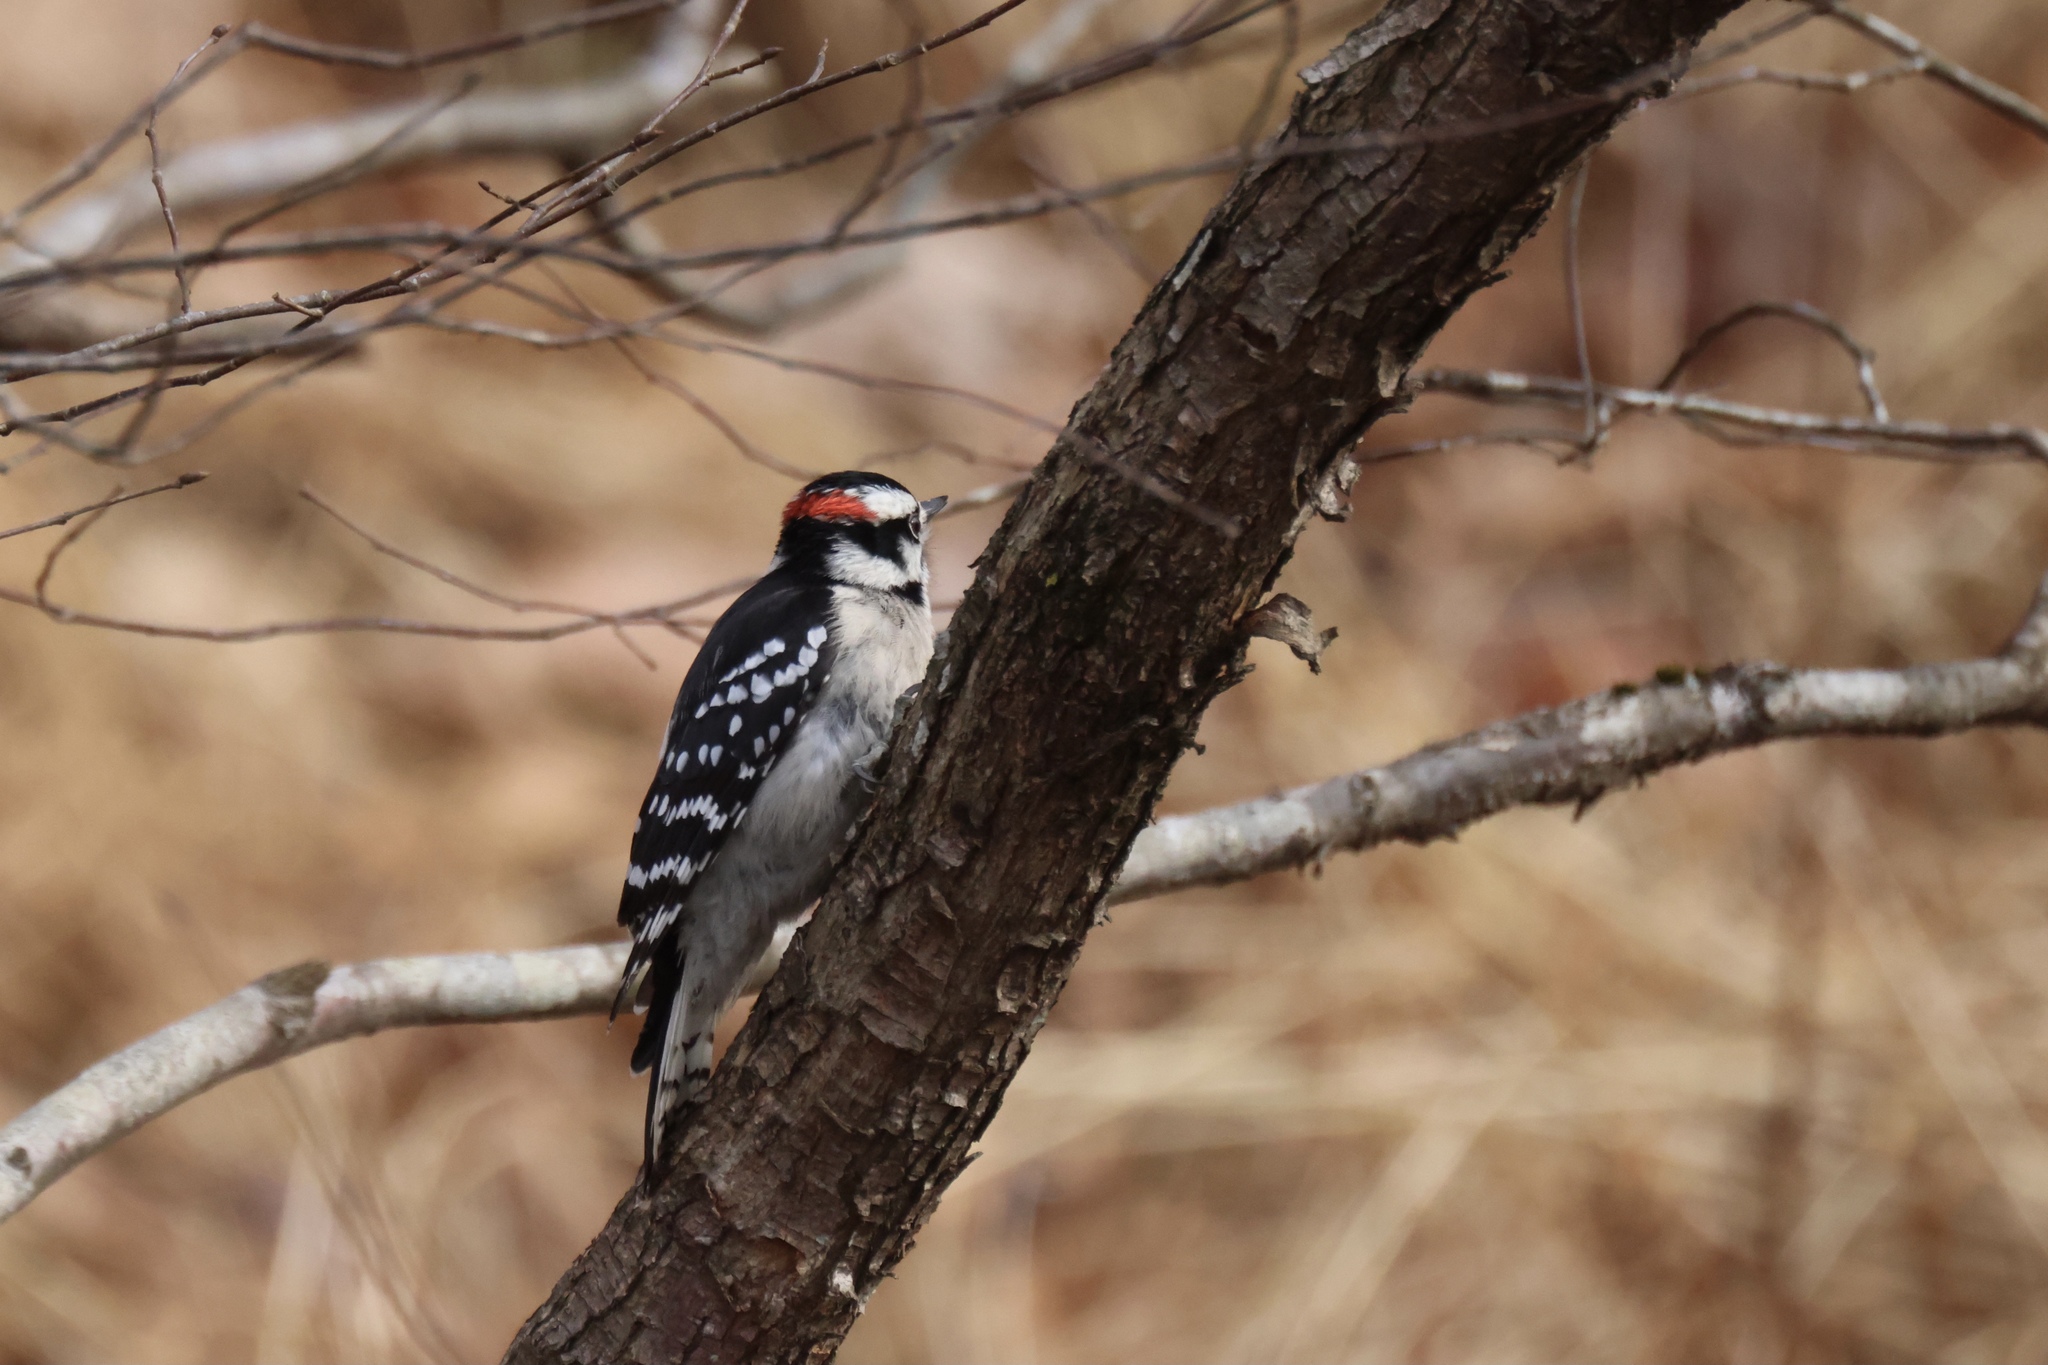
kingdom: Animalia
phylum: Chordata
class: Aves
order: Piciformes
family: Picidae
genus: Dryobates
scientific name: Dryobates pubescens
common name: Downy woodpecker
